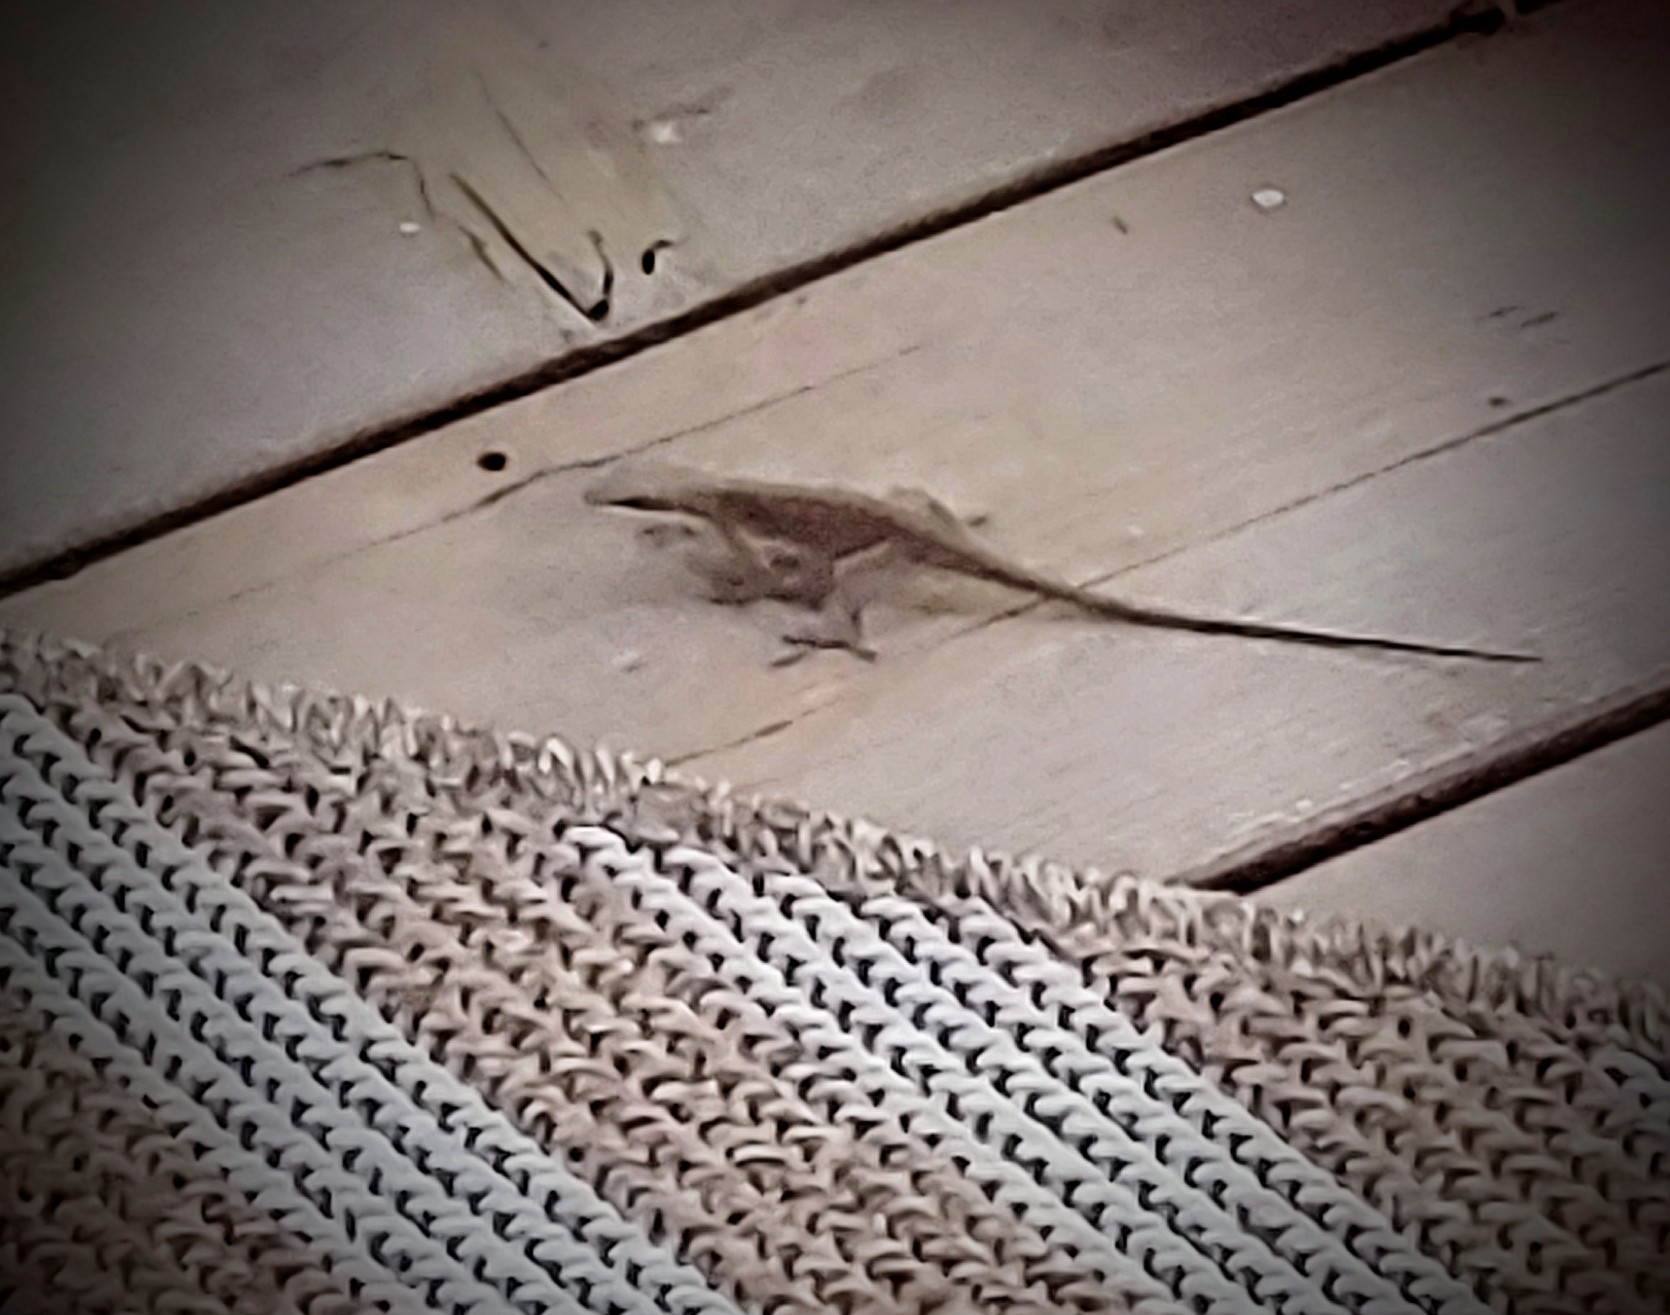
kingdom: Animalia
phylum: Chordata
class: Squamata
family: Dactyloidae
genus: Anolis
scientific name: Anolis carolinensis
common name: Green anole
